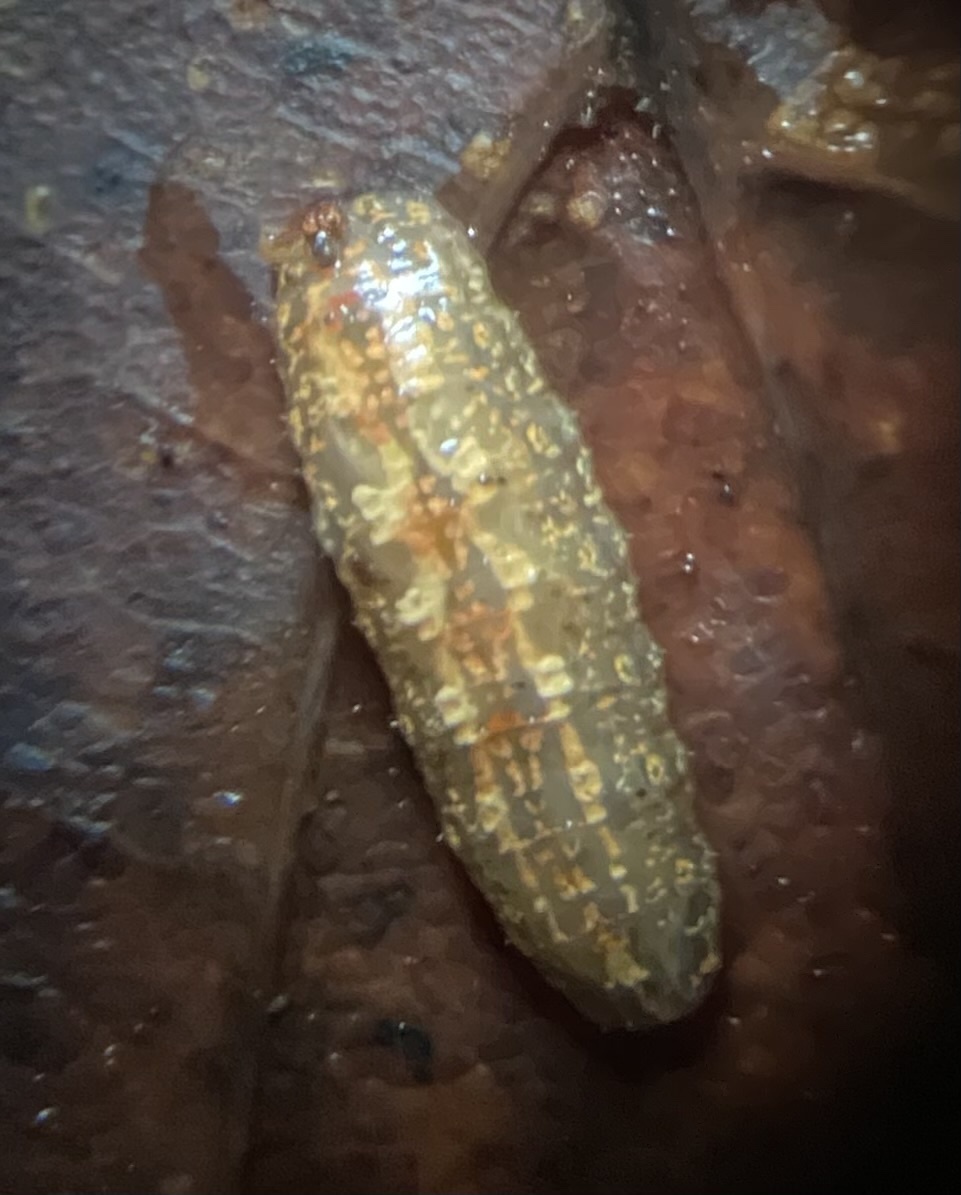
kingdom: Animalia
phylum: Arthropoda
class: Insecta
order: Diptera
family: Syrphidae
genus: Syrphus
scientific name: Syrphus
